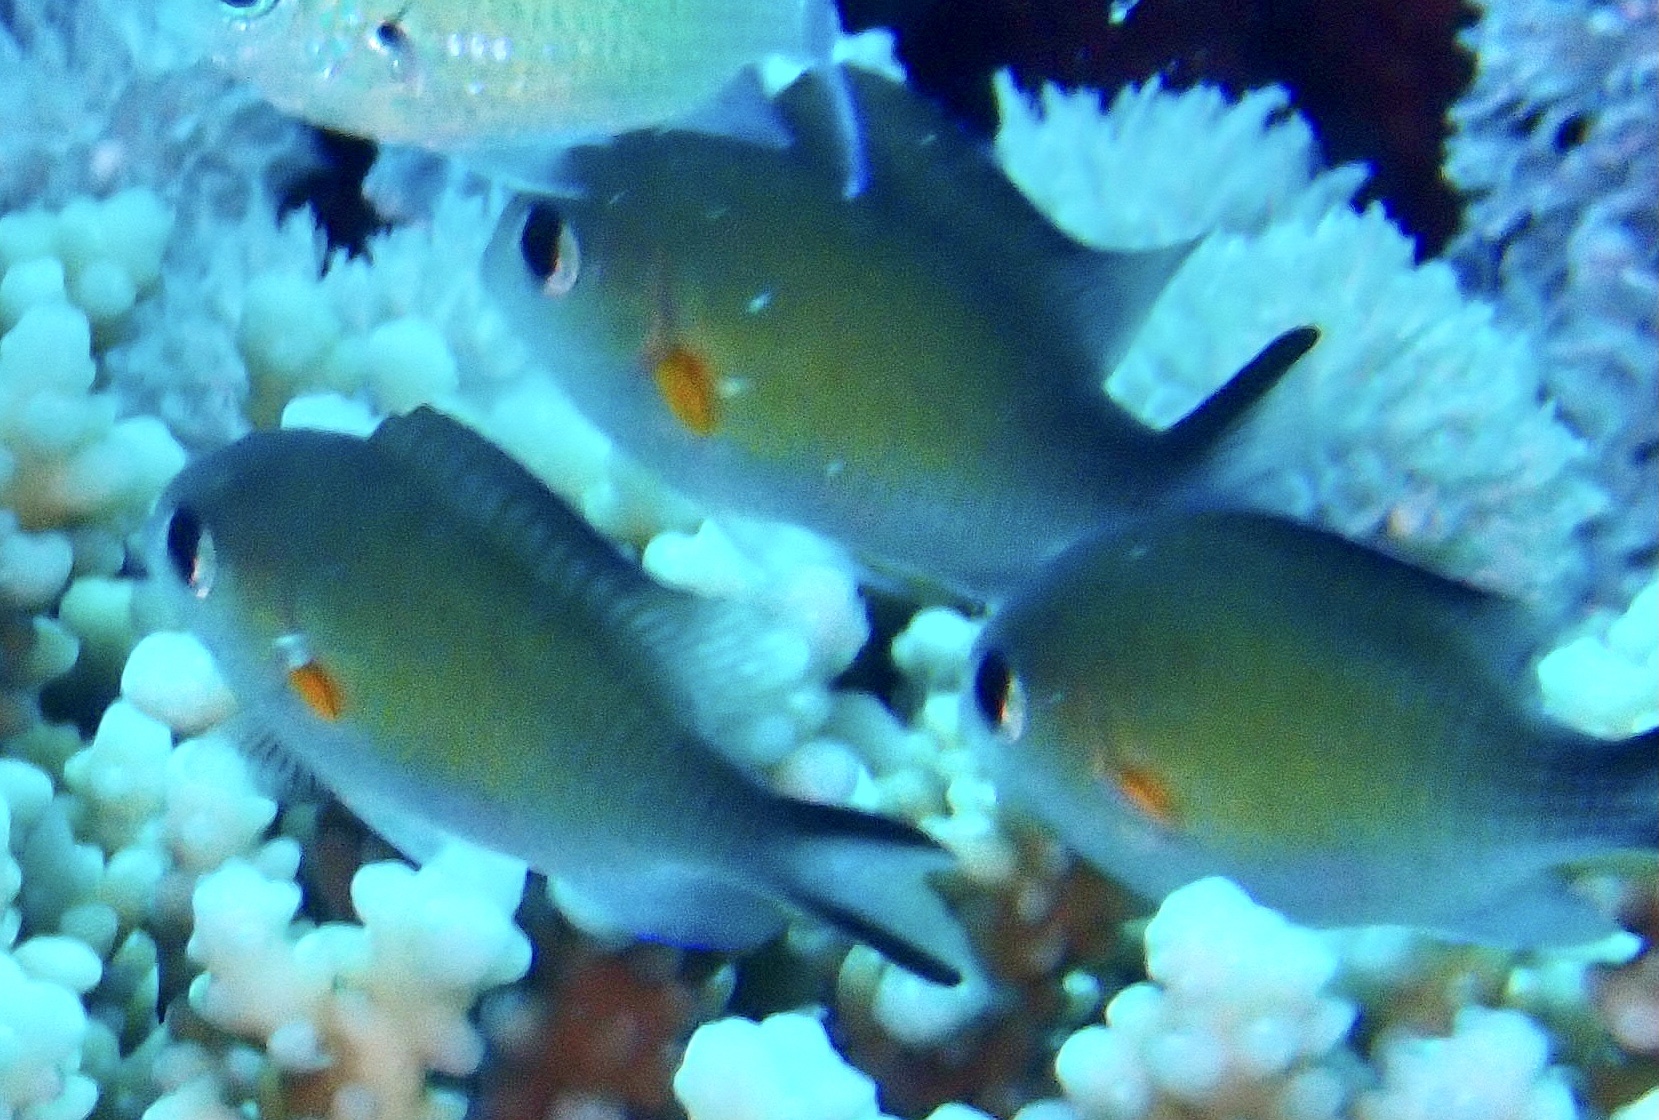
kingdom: Animalia
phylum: Chordata
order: Perciformes
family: Pomacentridae
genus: Chromis
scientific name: Chromis flavaxilla
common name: Arabian chromis
